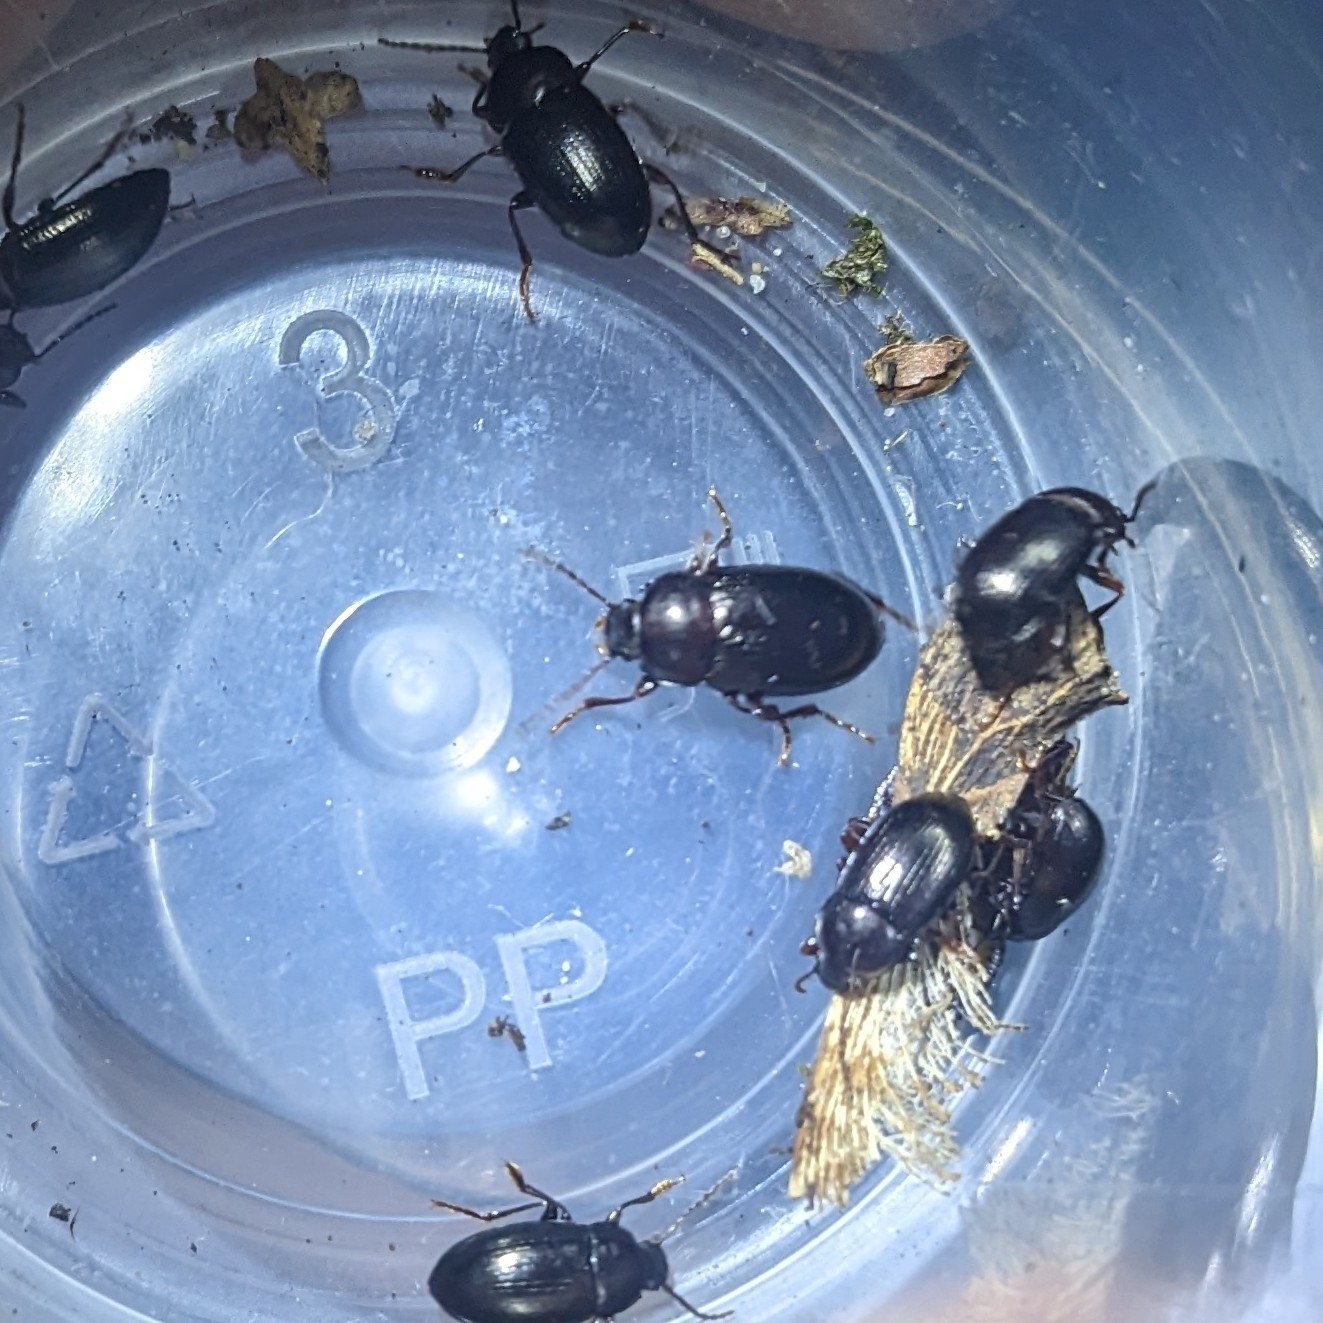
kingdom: Animalia
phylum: Arthropoda
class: Insecta
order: Coleoptera
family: Tenebrionidae
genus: Nalassus
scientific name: Nalassus laevioctostriatus
